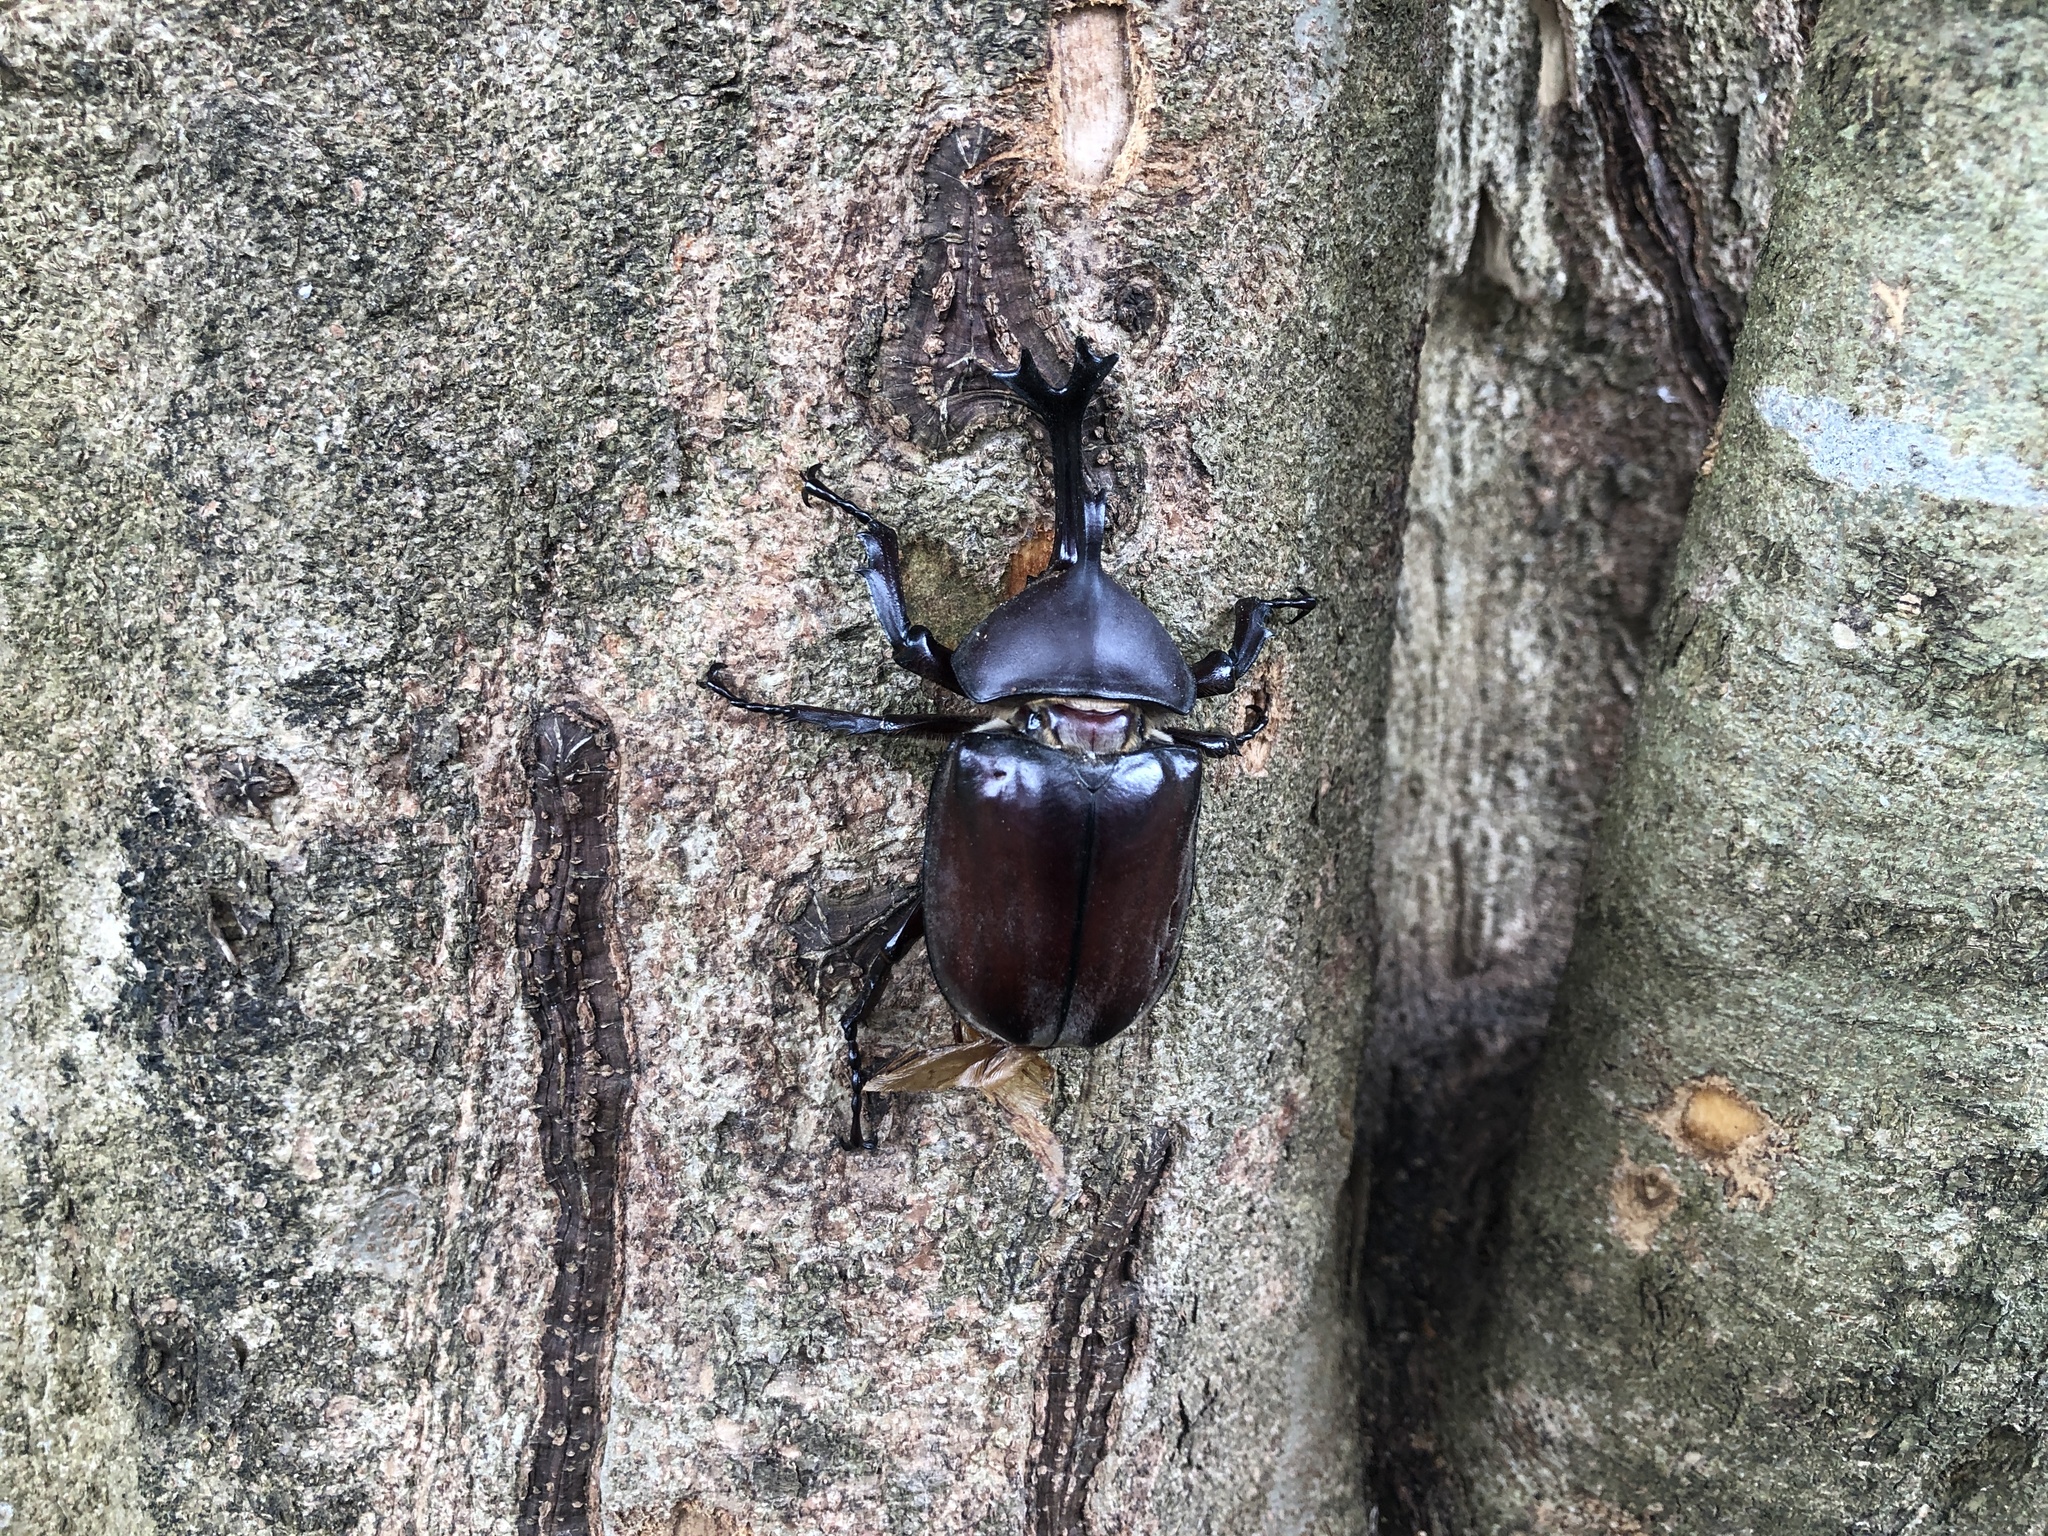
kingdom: Animalia
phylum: Arthropoda
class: Insecta
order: Coleoptera
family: Scarabaeidae
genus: Trypoxylus
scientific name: Trypoxylus dichotomus
